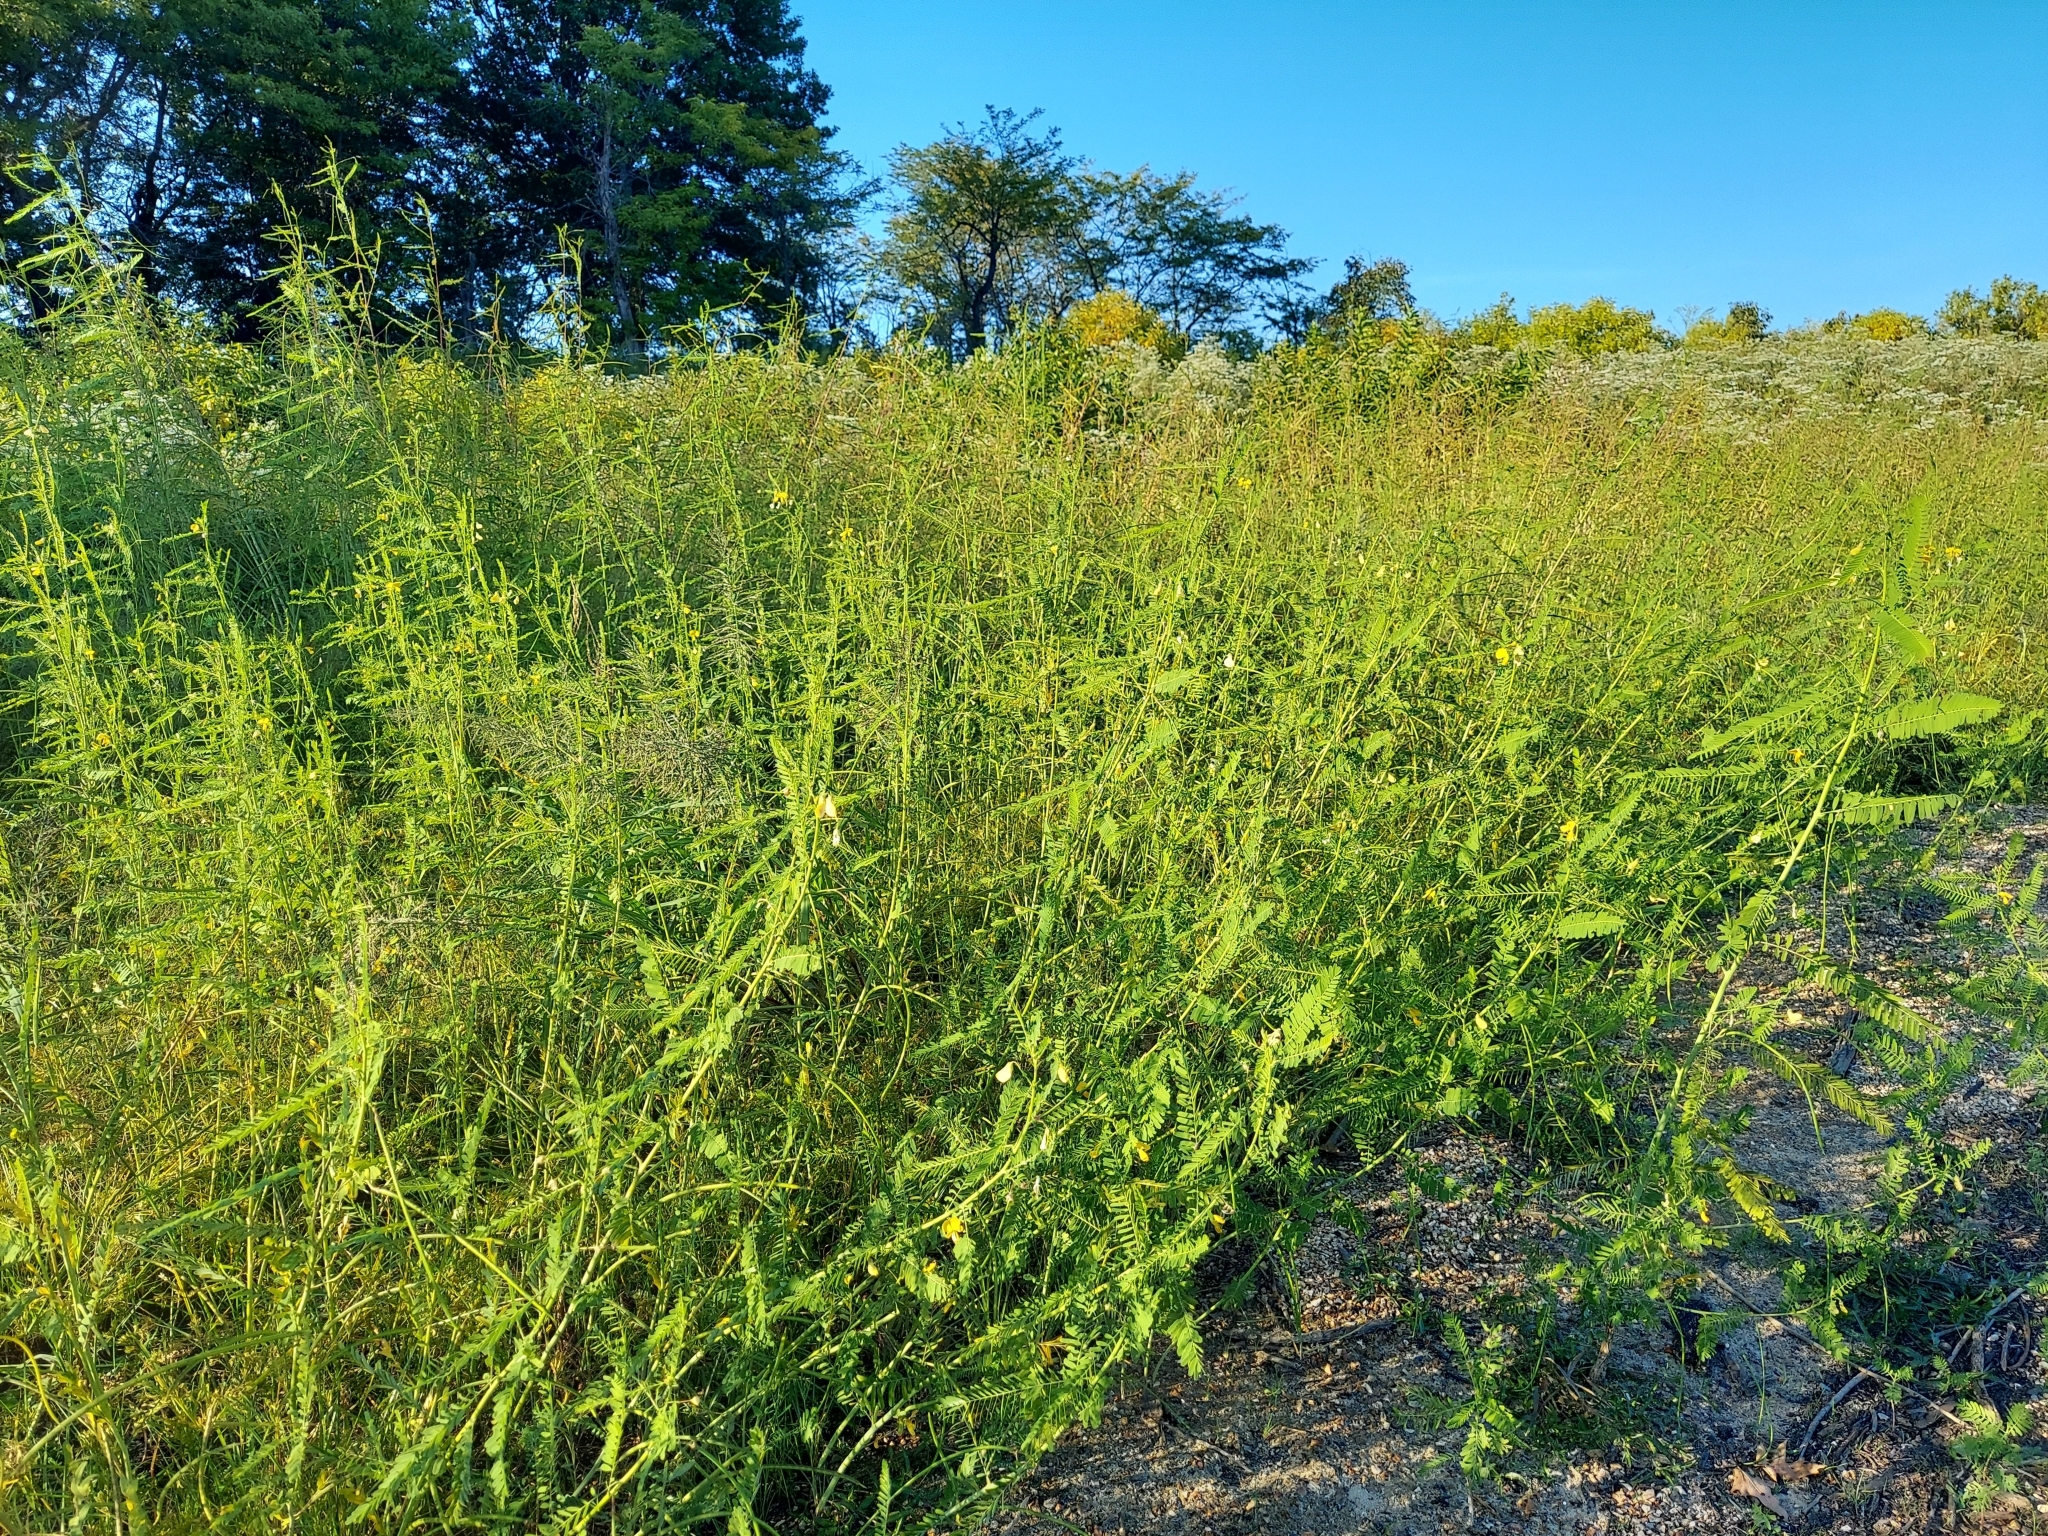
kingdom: Plantae
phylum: Tracheophyta
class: Magnoliopsida
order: Fabales
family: Fabaceae
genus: Sesbania
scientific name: Sesbania herbacea
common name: Bigpod sesbania
